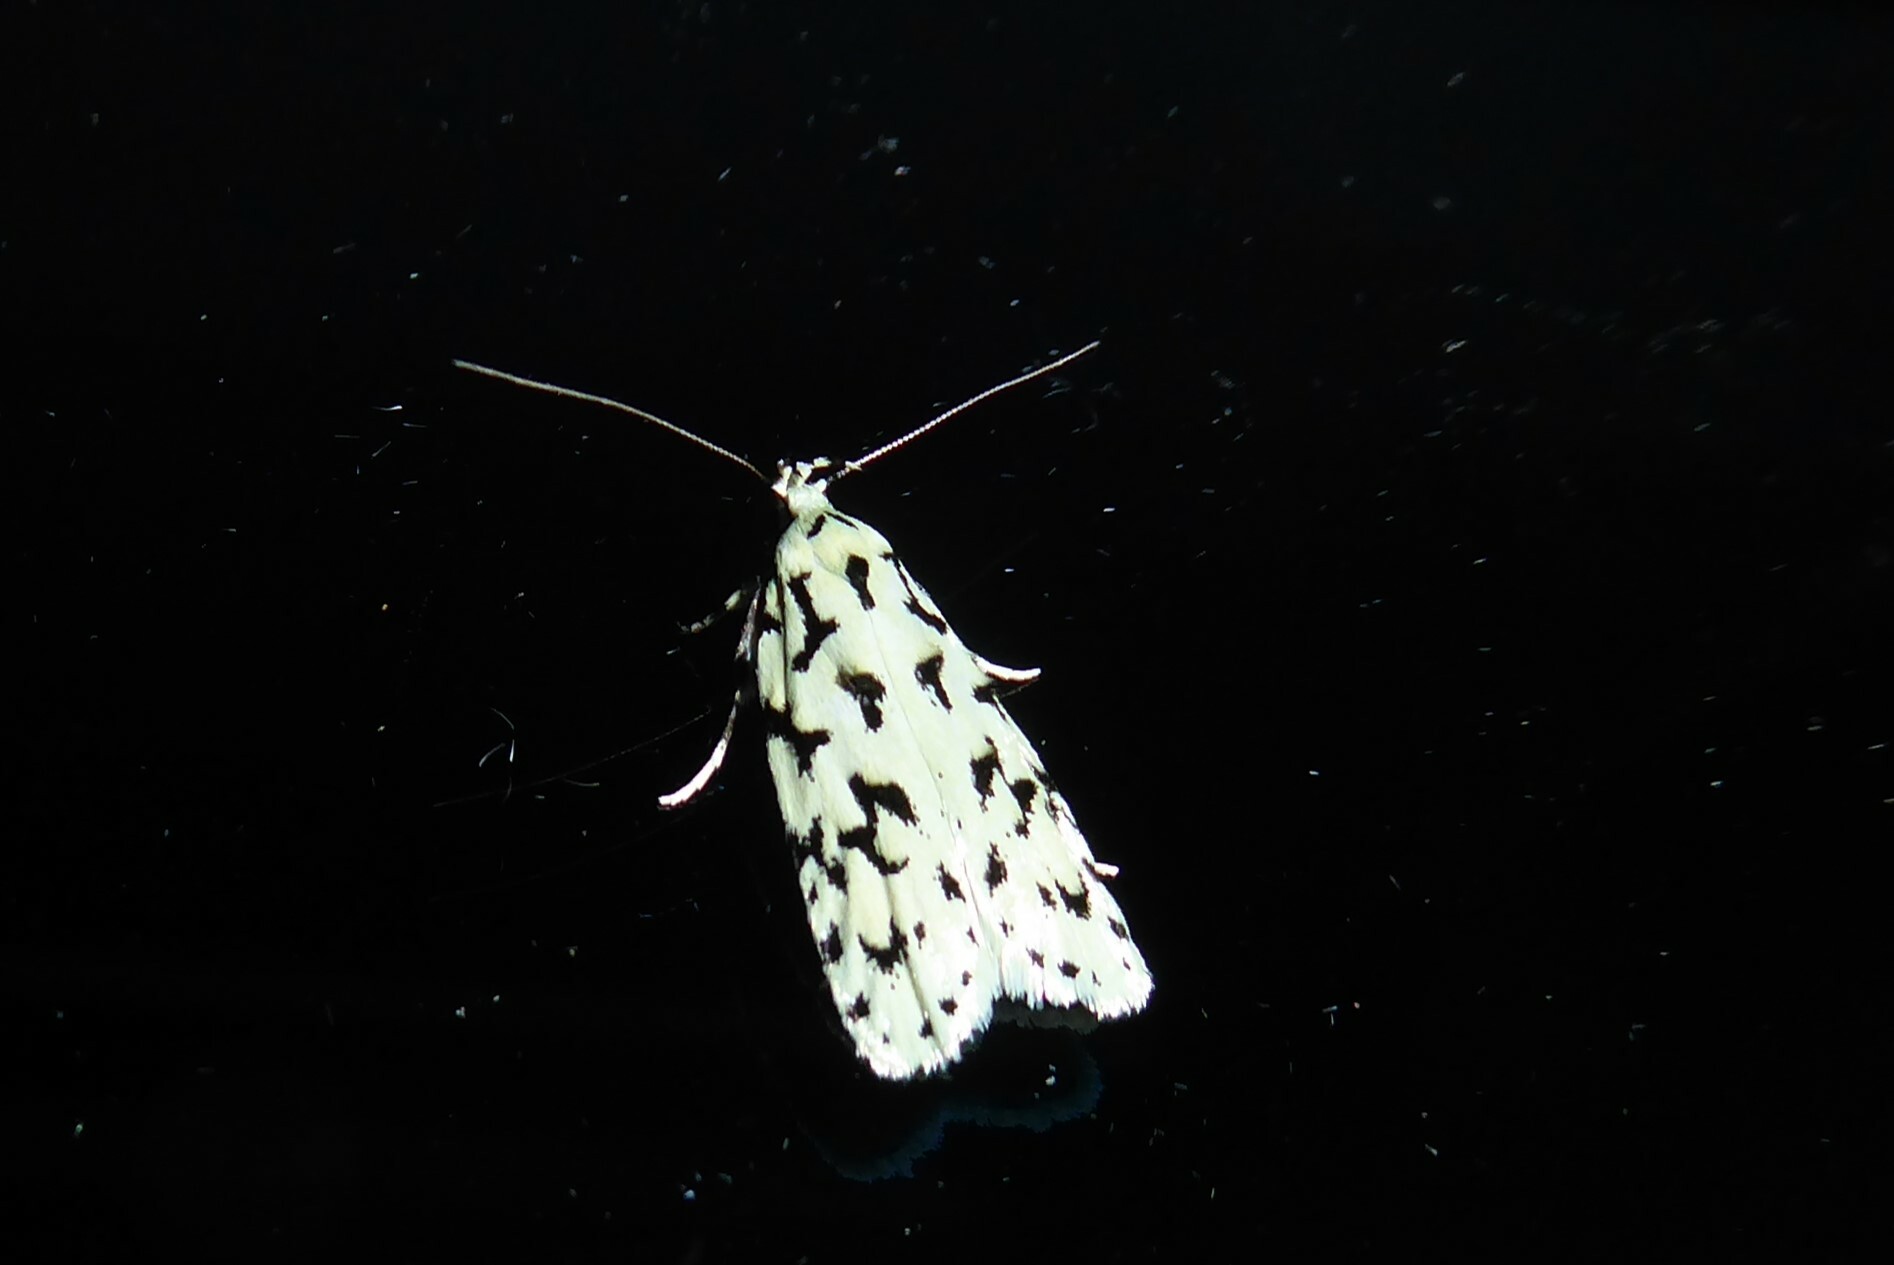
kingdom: Animalia
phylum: Arthropoda
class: Insecta
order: Lepidoptera
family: Oecophoridae
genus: Izatha
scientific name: Izatha huttoni
